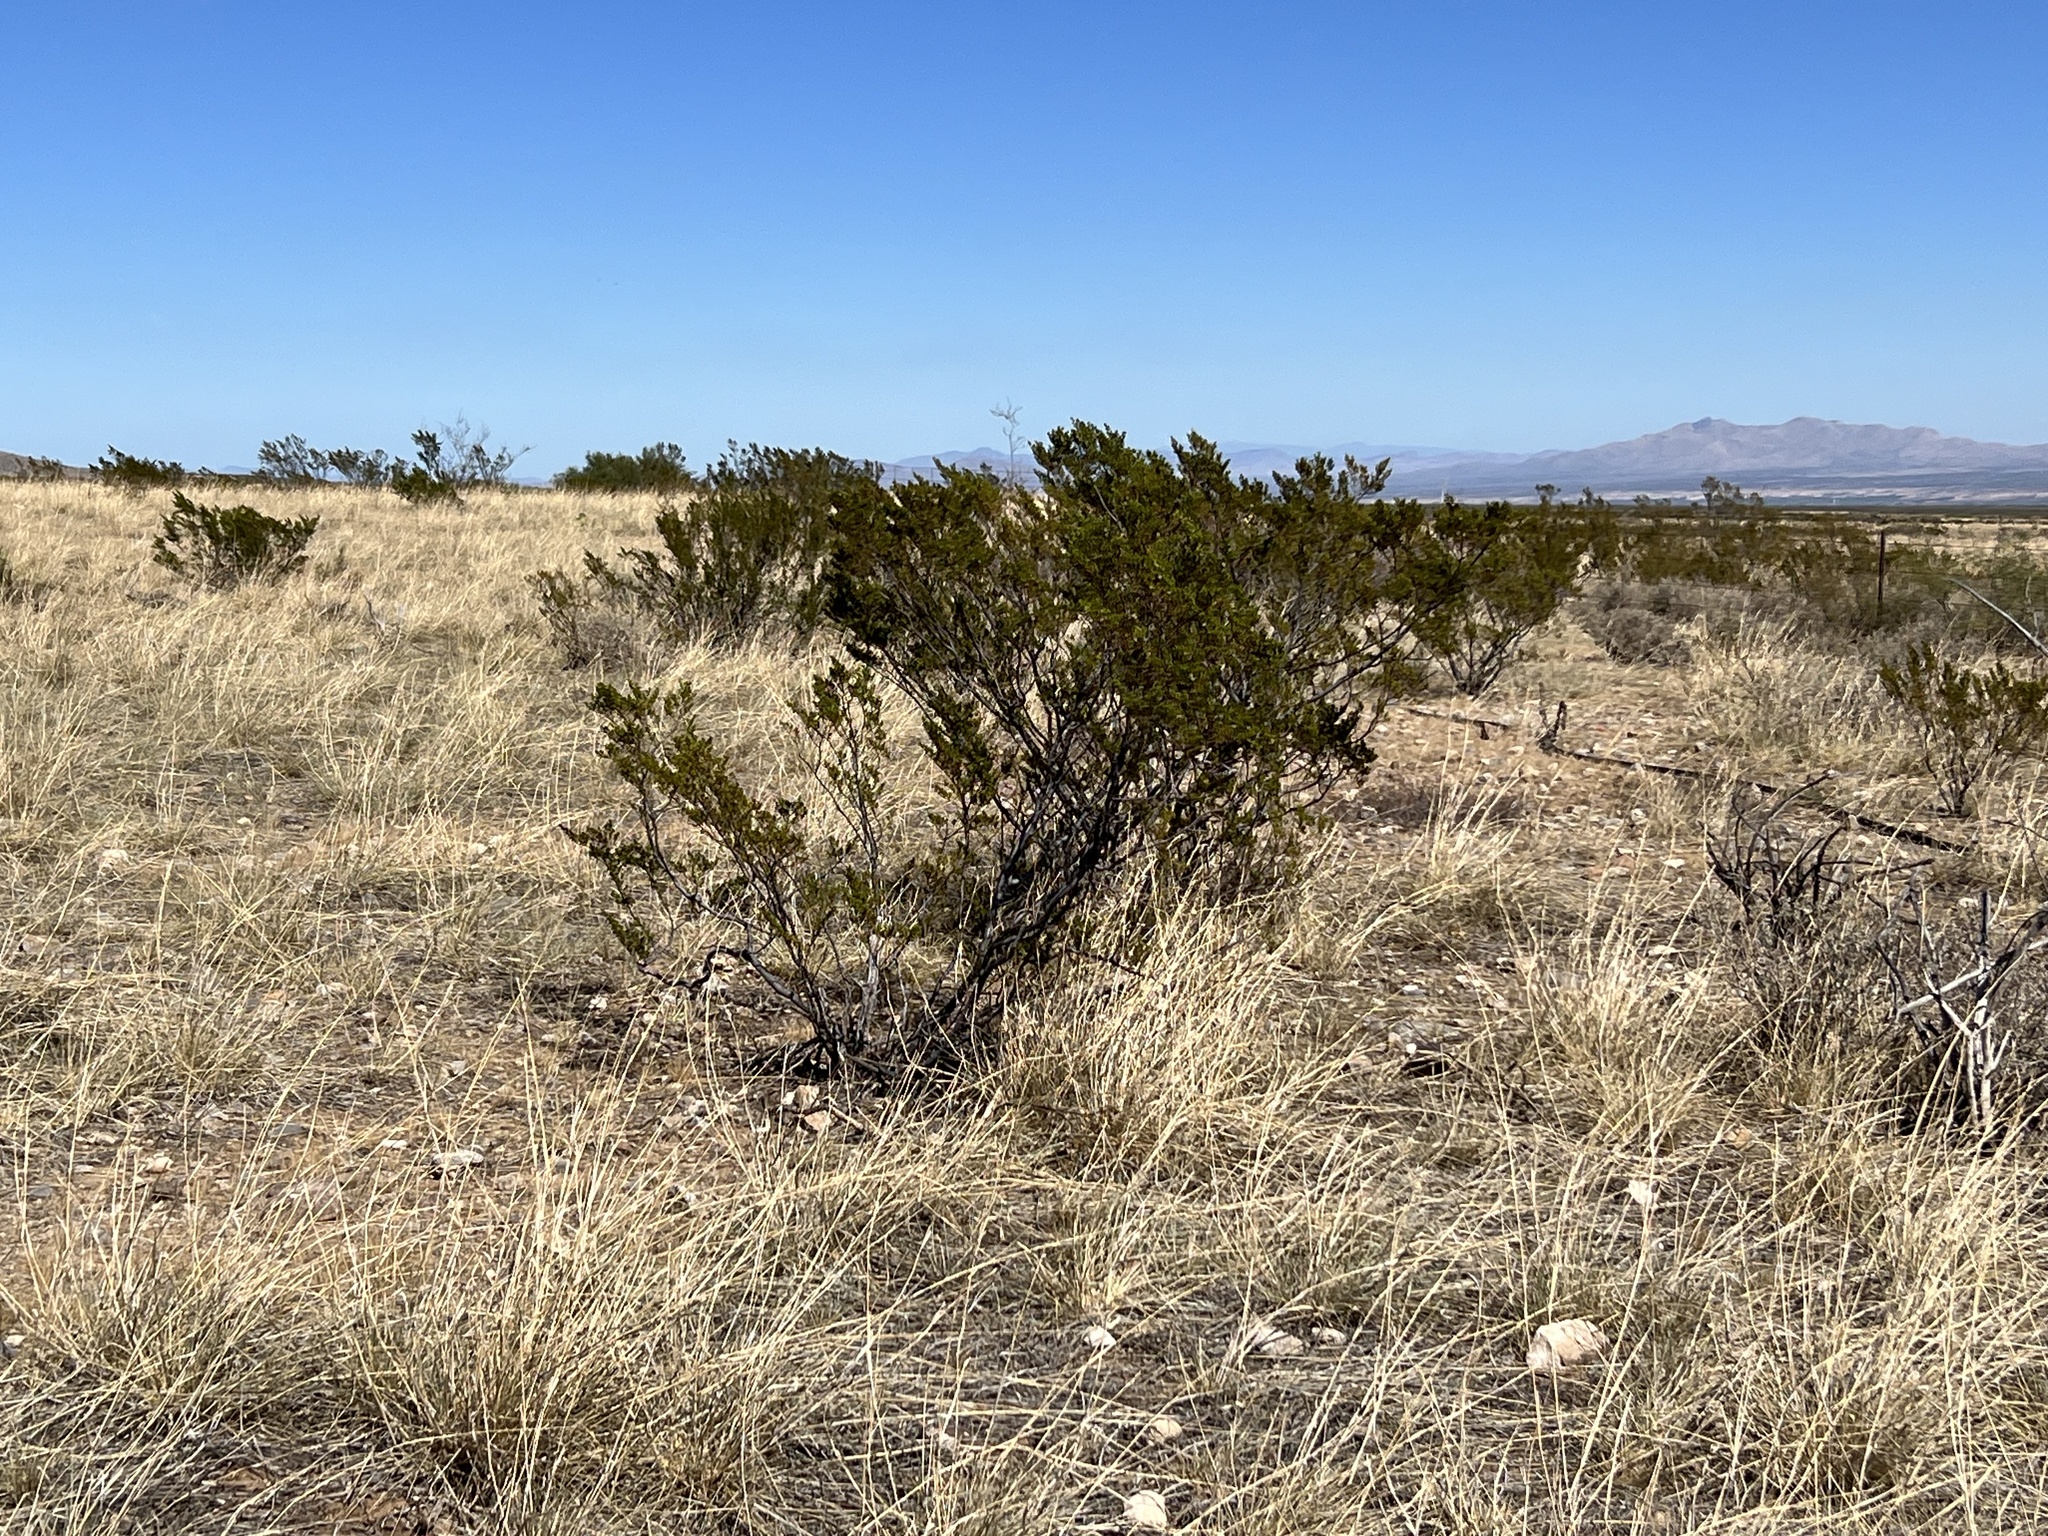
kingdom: Plantae
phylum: Tracheophyta
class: Magnoliopsida
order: Zygophyllales
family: Zygophyllaceae
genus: Larrea
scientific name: Larrea tridentata
